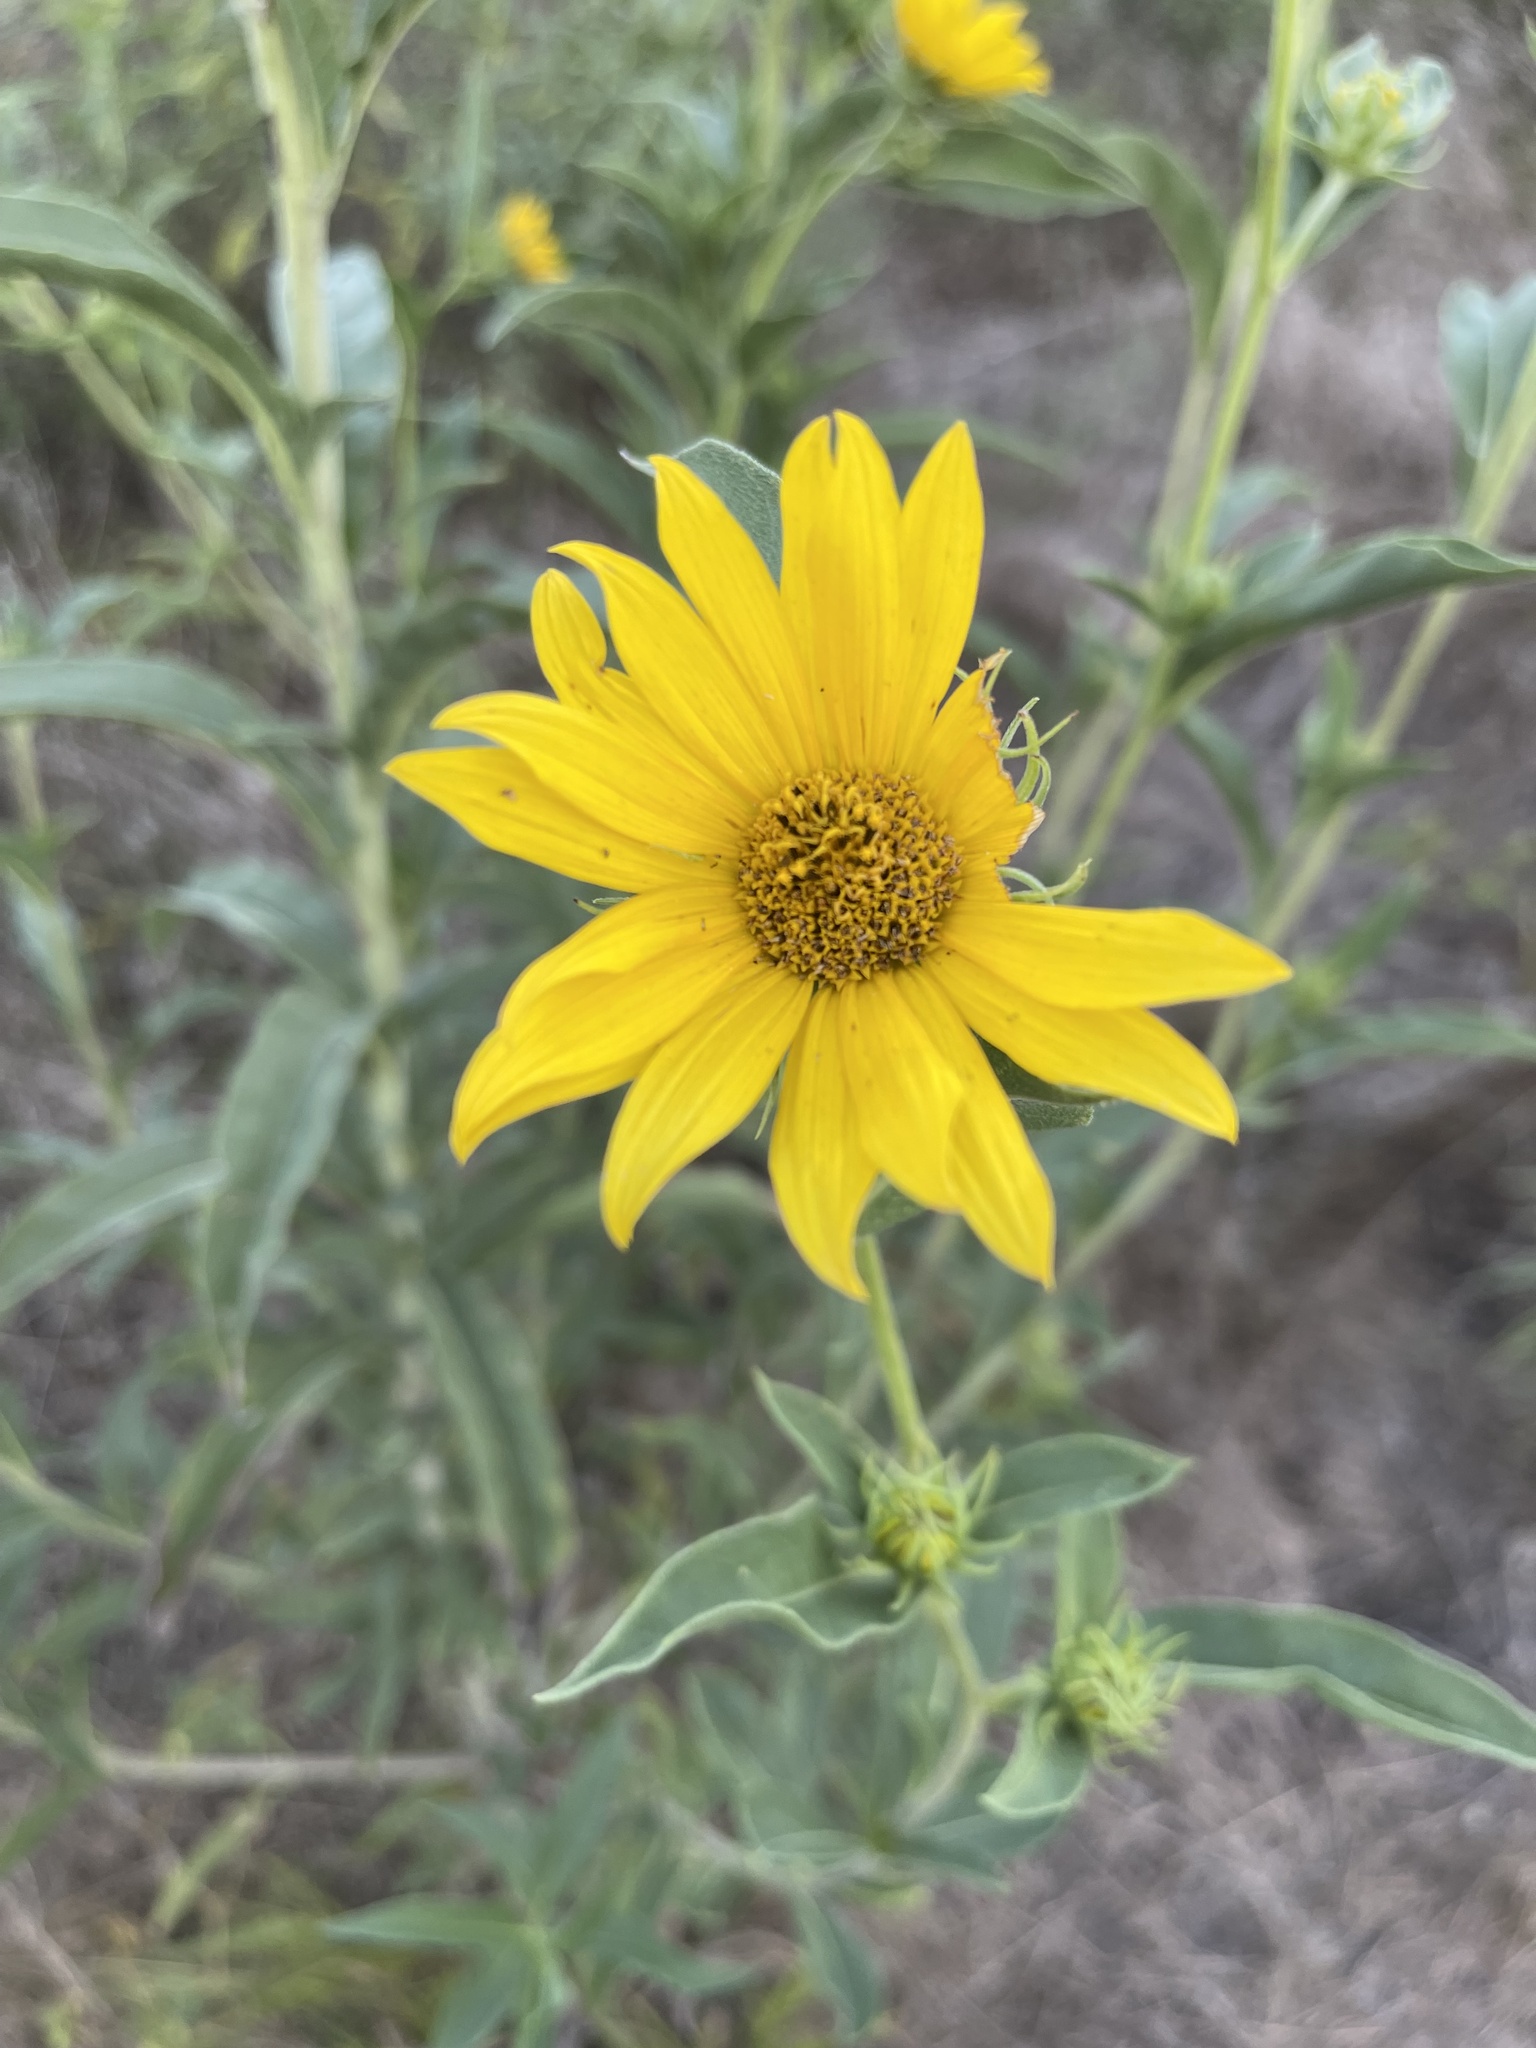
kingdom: Plantae
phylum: Tracheophyta
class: Magnoliopsida
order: Asterales
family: Asteraceae
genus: Helianthus
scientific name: Helianthus maximiliani
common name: Maximilian's sunflower
